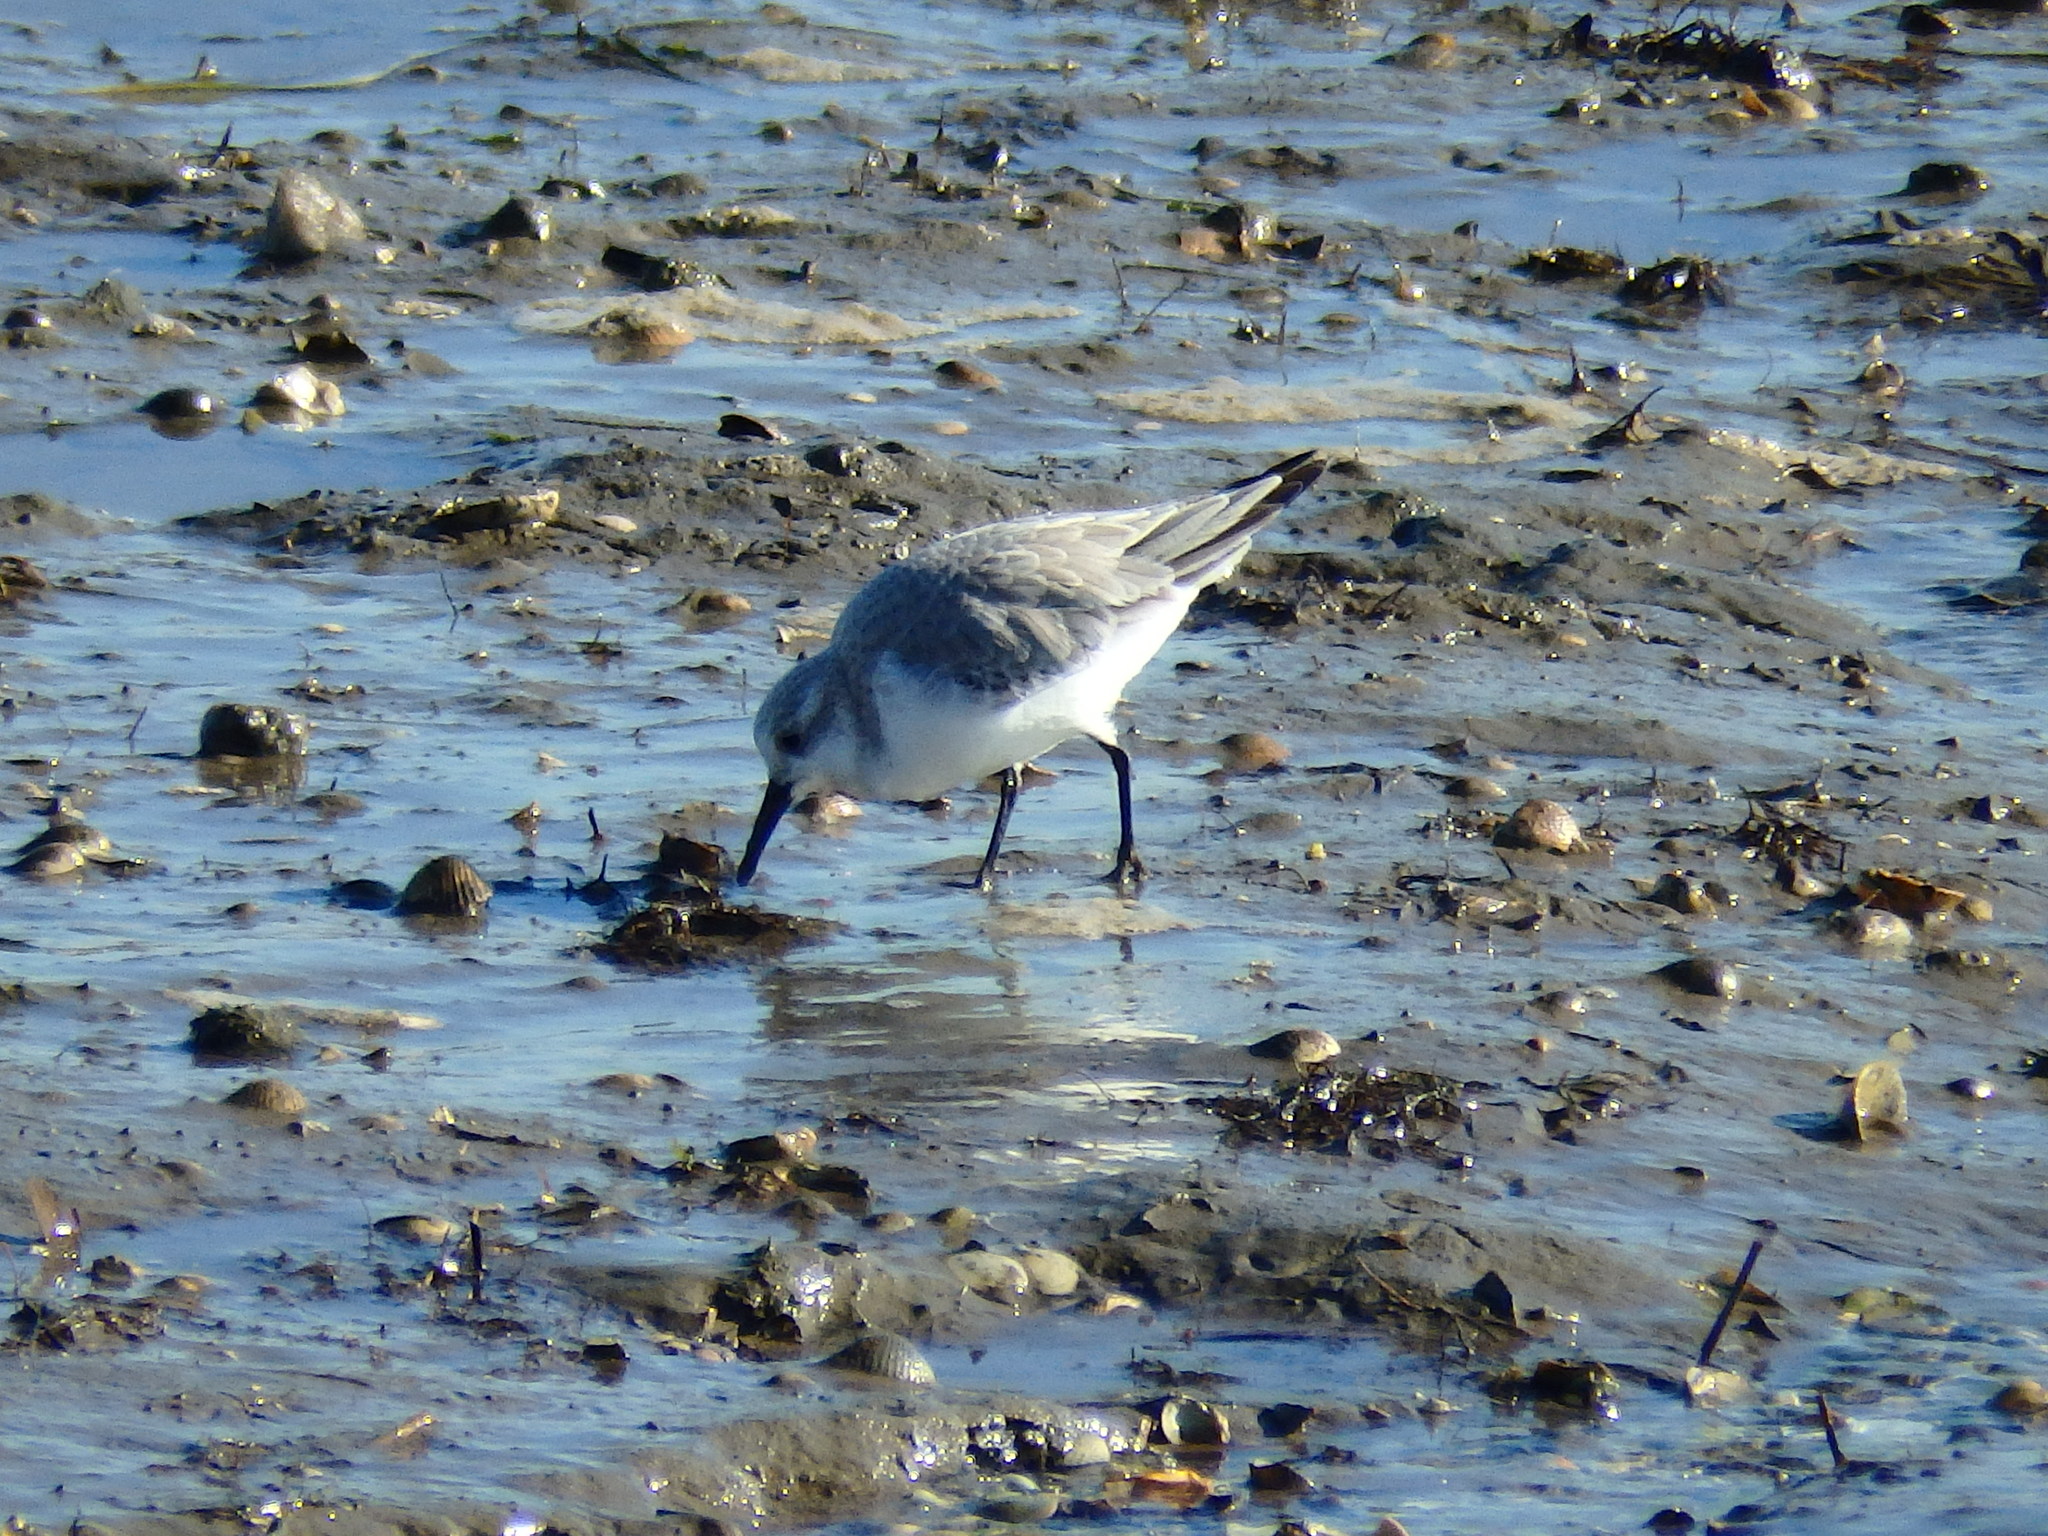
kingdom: Animalia
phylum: Chordata
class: Aves
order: Charadriiformes
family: Scolopacidae
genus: Calidris
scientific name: Calidris alba
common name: Sanderling
